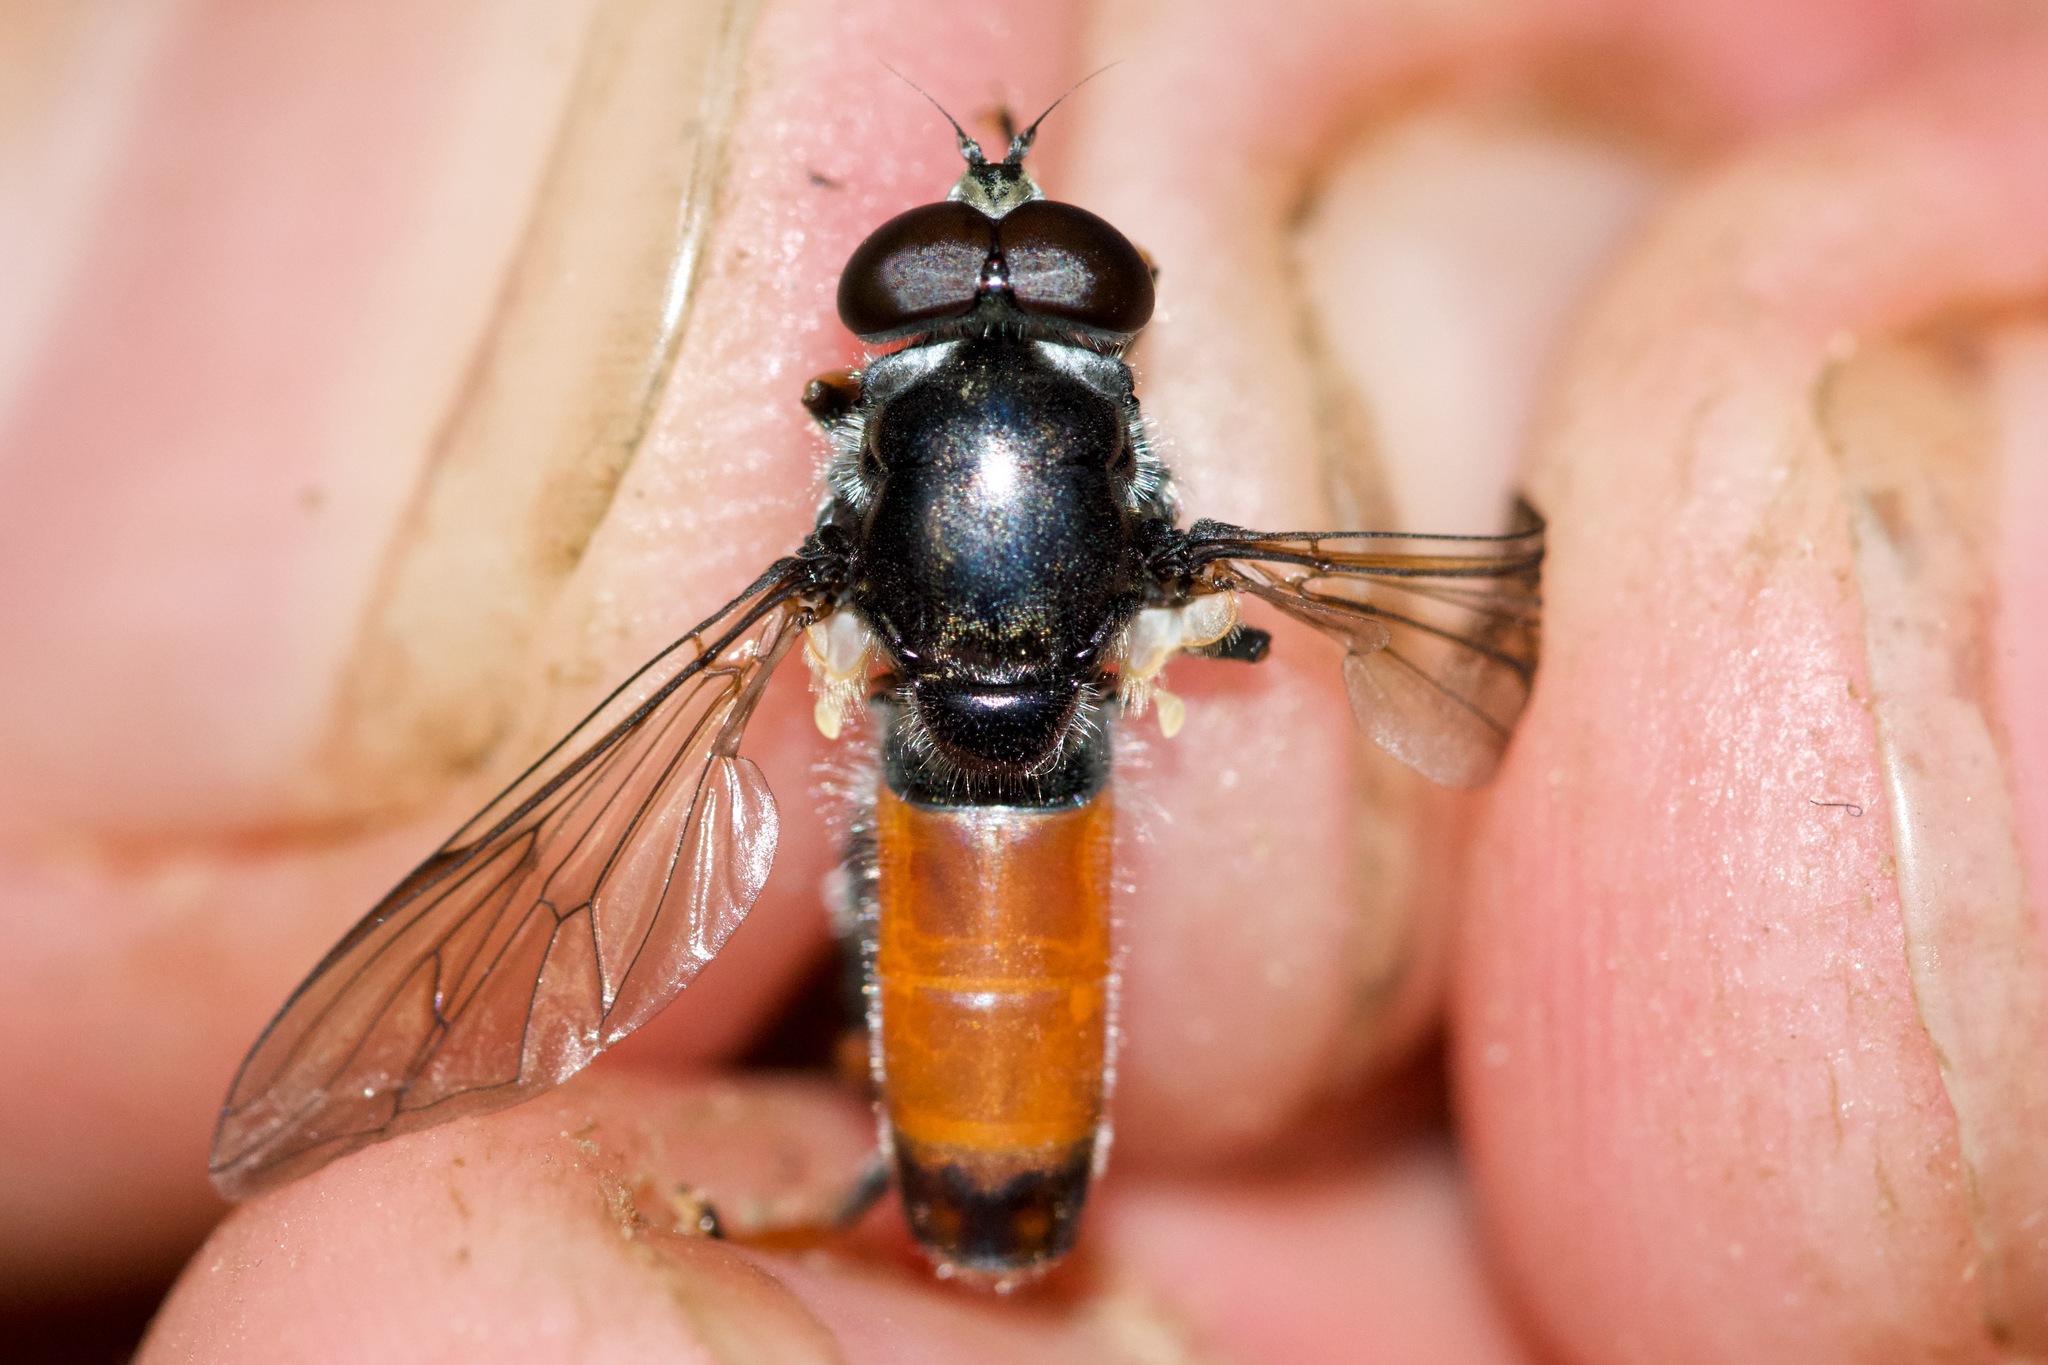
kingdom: Animalia
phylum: Arthropoda
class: Insecta
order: Diptera
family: Syrphidae
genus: Xylota
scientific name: Xylota flavitibia
